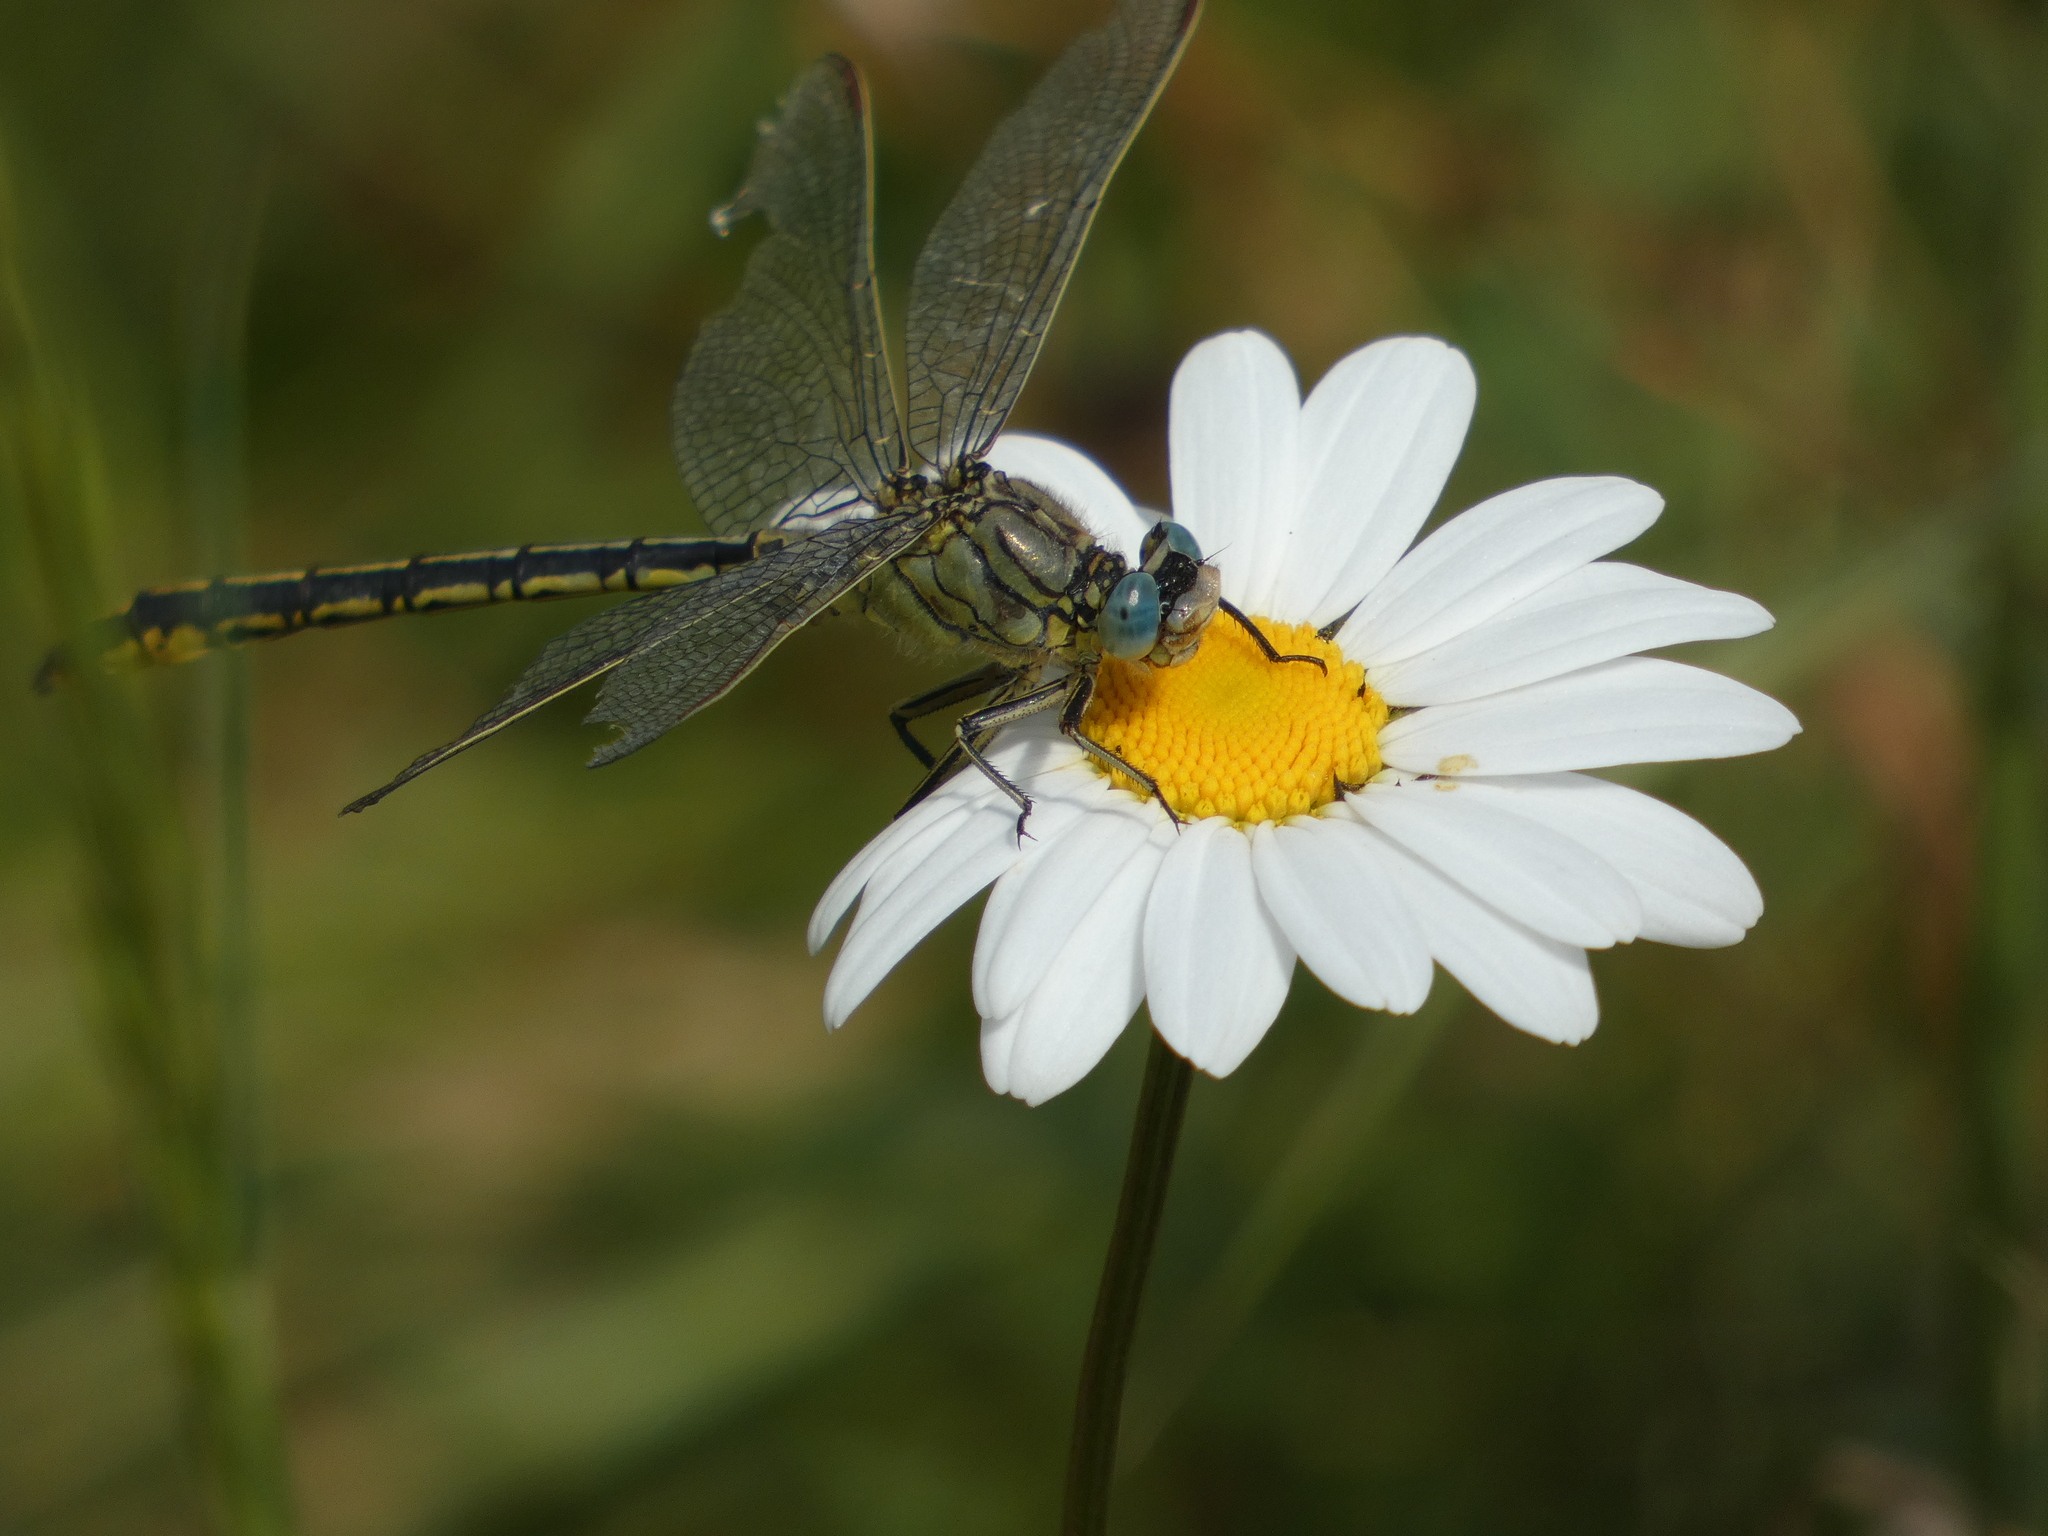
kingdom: Animalia
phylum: Arthropoda
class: Insecta
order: Odonata
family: Gomphidae
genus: Gomphus
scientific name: Gomphus pulchellus
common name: Western clubtail
